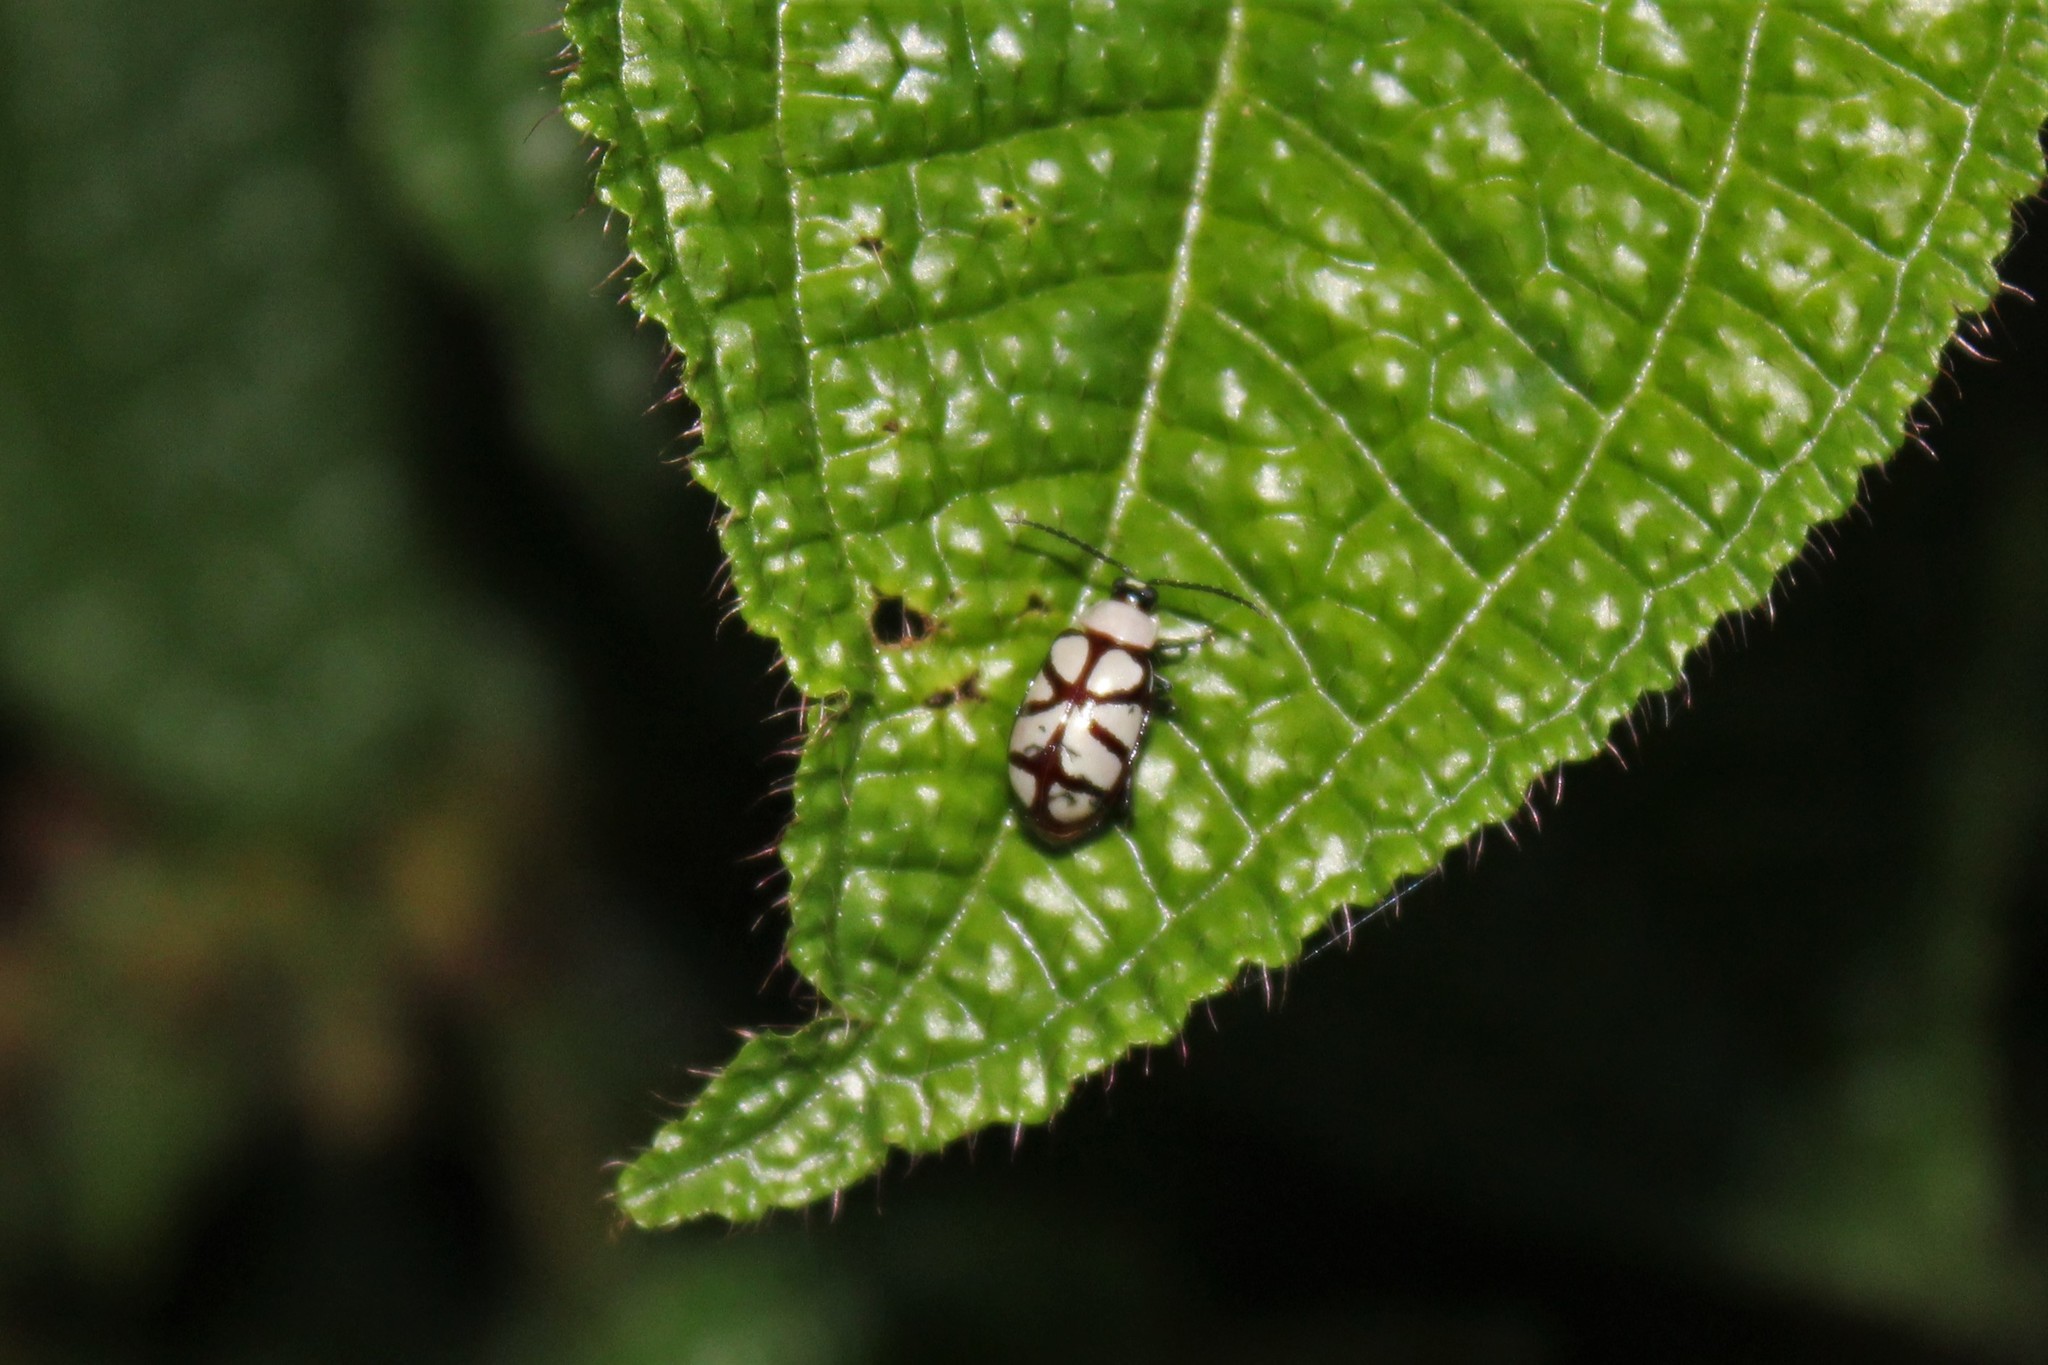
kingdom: Animalia
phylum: Arthropoda
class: Insecta
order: Coleoptera
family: Chrysomelidae
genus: Omophoita
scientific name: Omophoita
